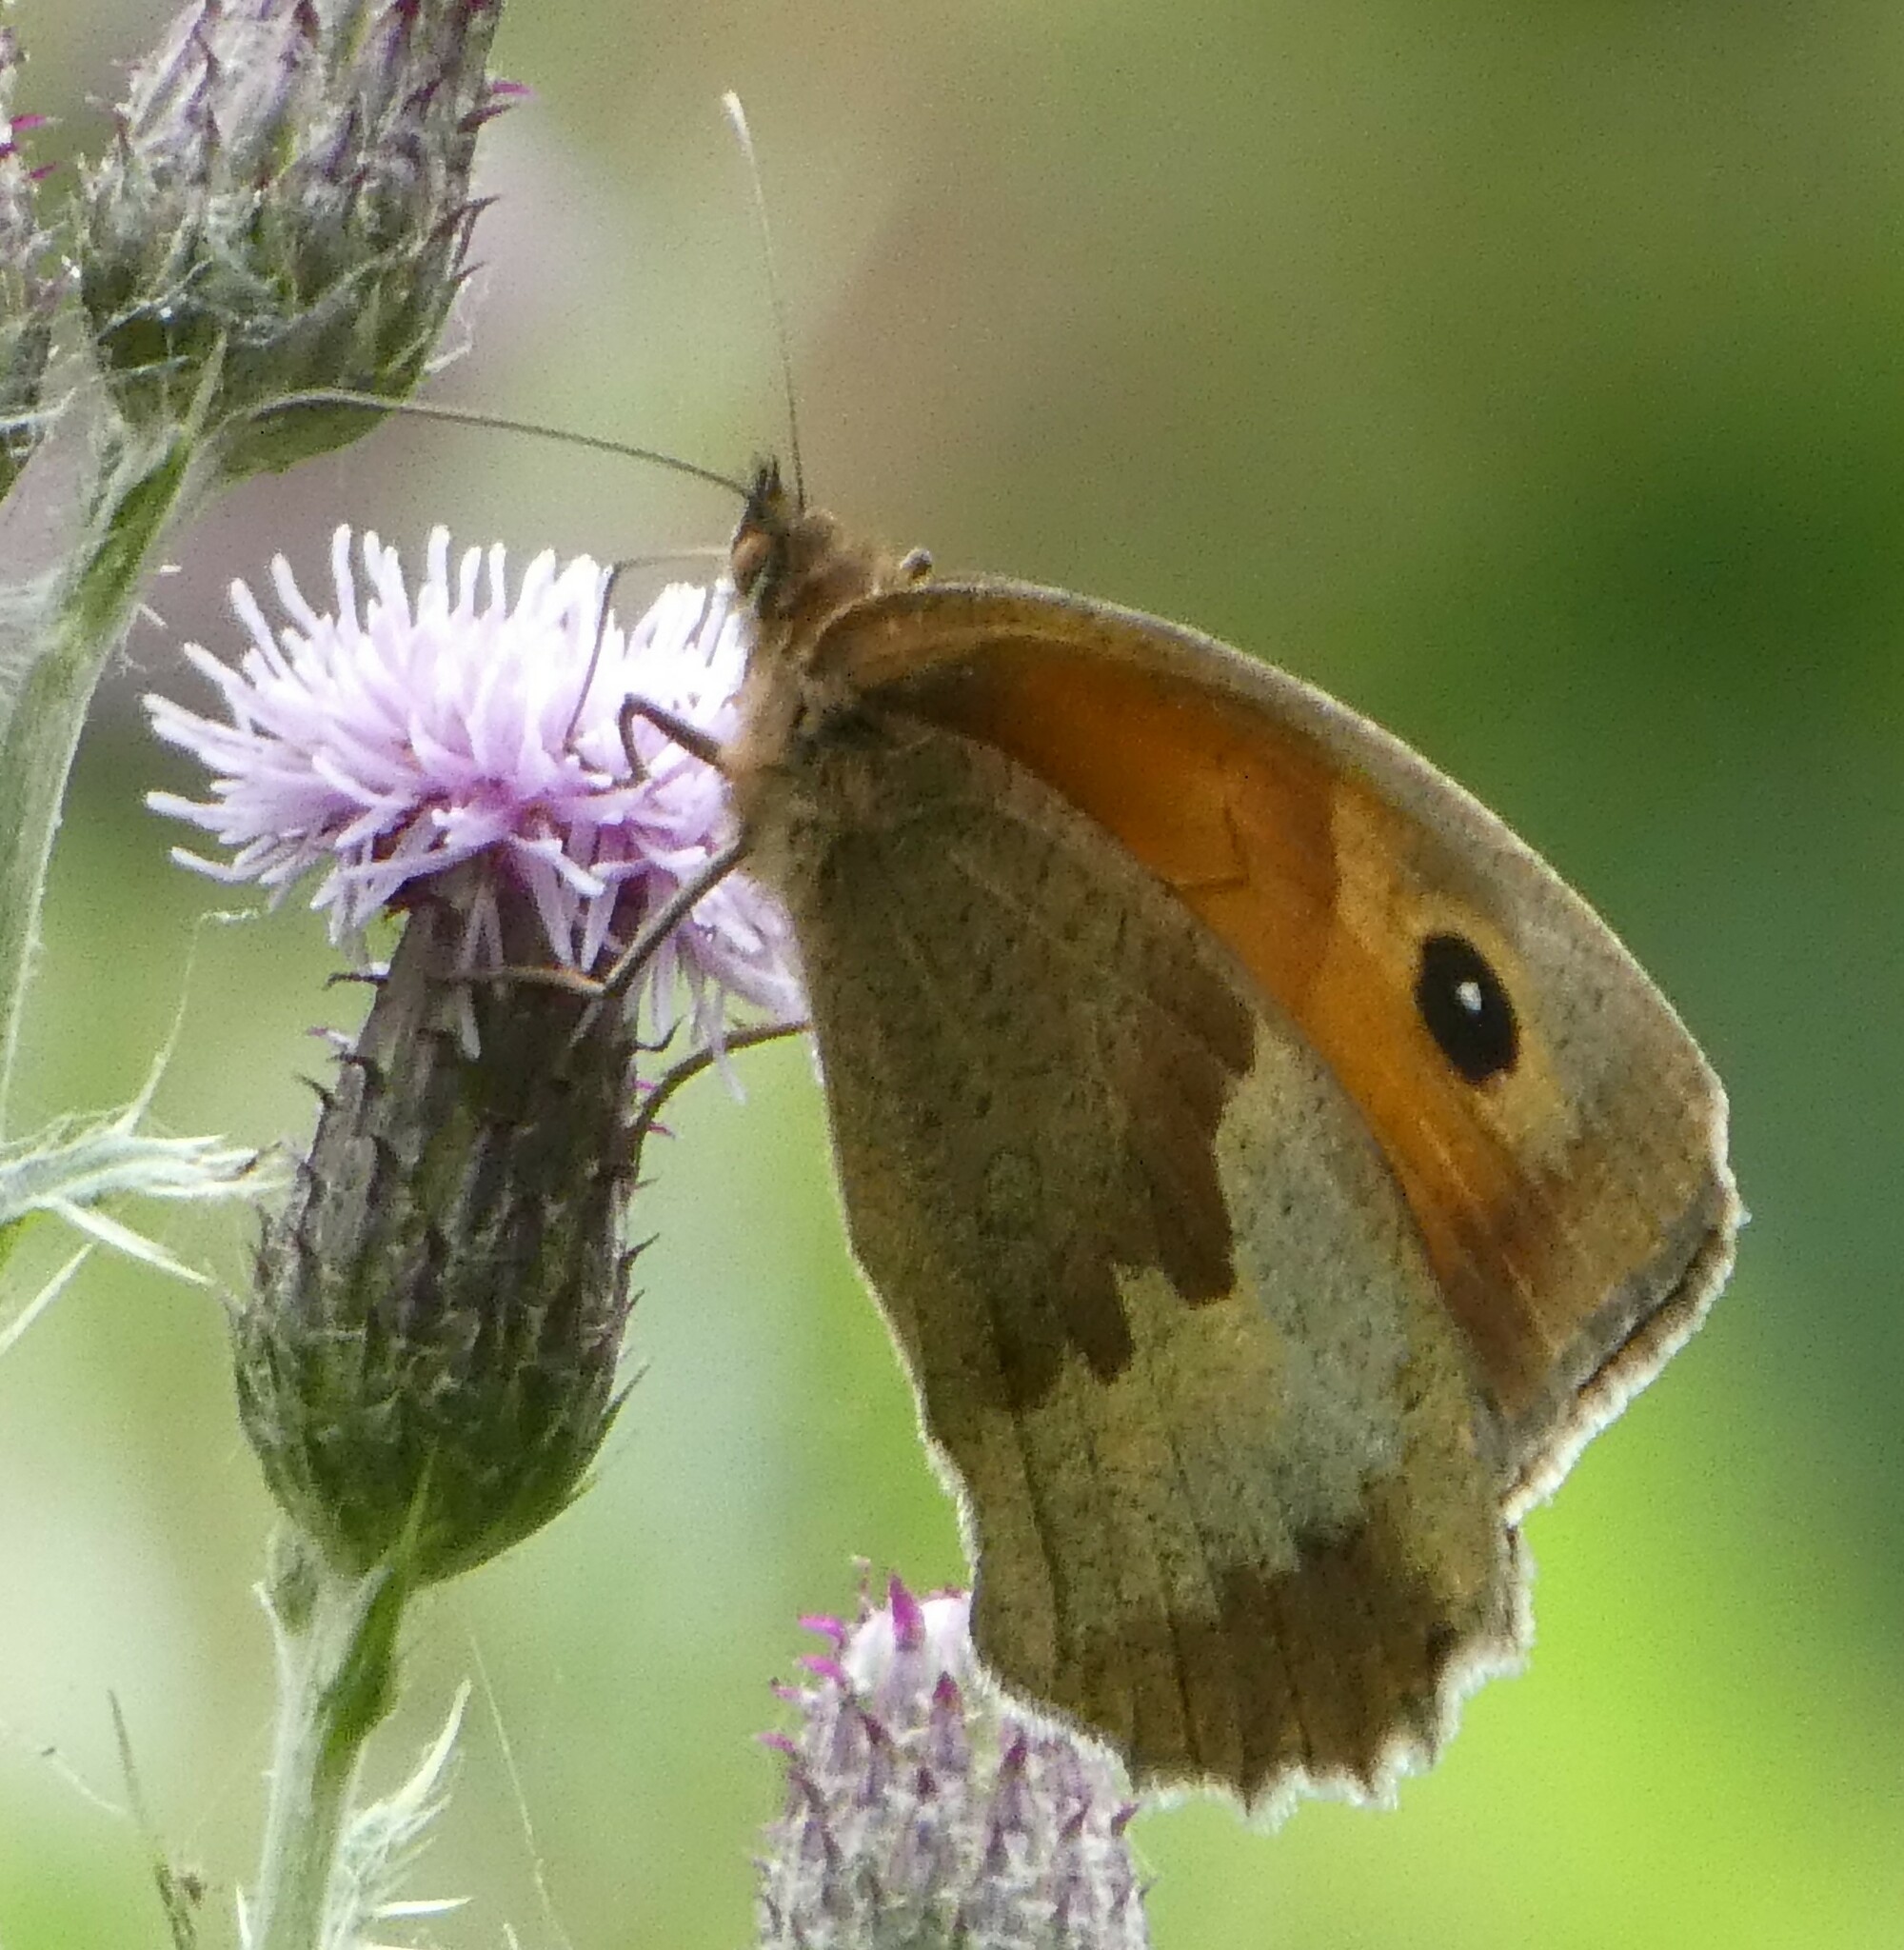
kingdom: Animalia
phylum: Arthropoda
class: Insecta
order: Lepidoptera
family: Nymphalidae
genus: Maniola
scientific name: Maniola jurtina
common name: Meadow brown
